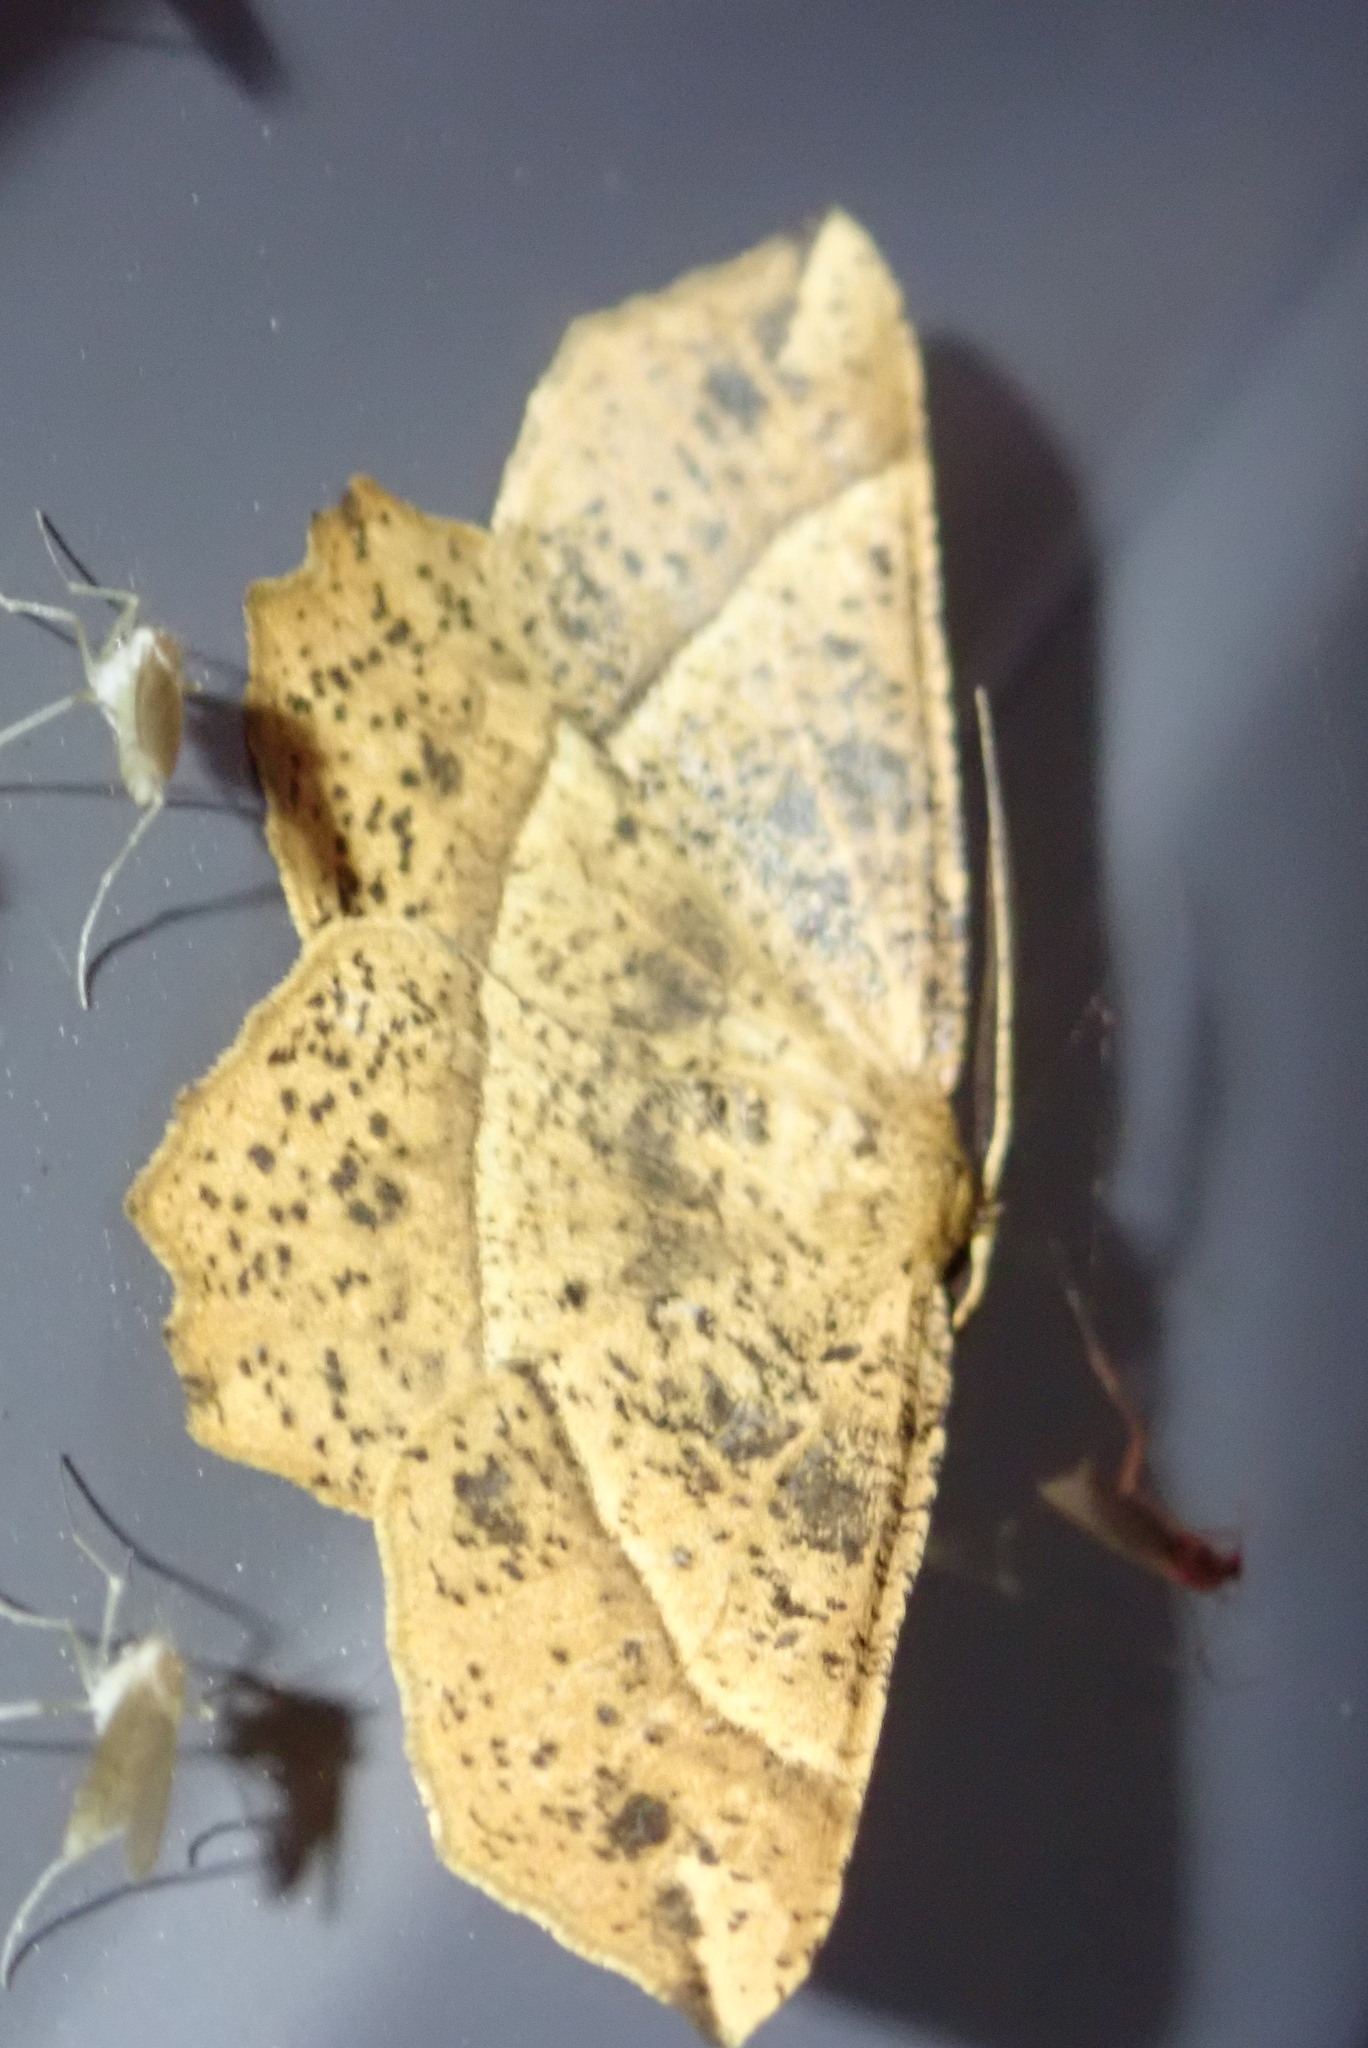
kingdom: Animalia
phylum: Arthropoda
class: Insecta
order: Lepidoptera
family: Geometridae
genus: Euchlaena
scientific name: Euchlaena tigrinaria
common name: Mottled euchlaena moth
